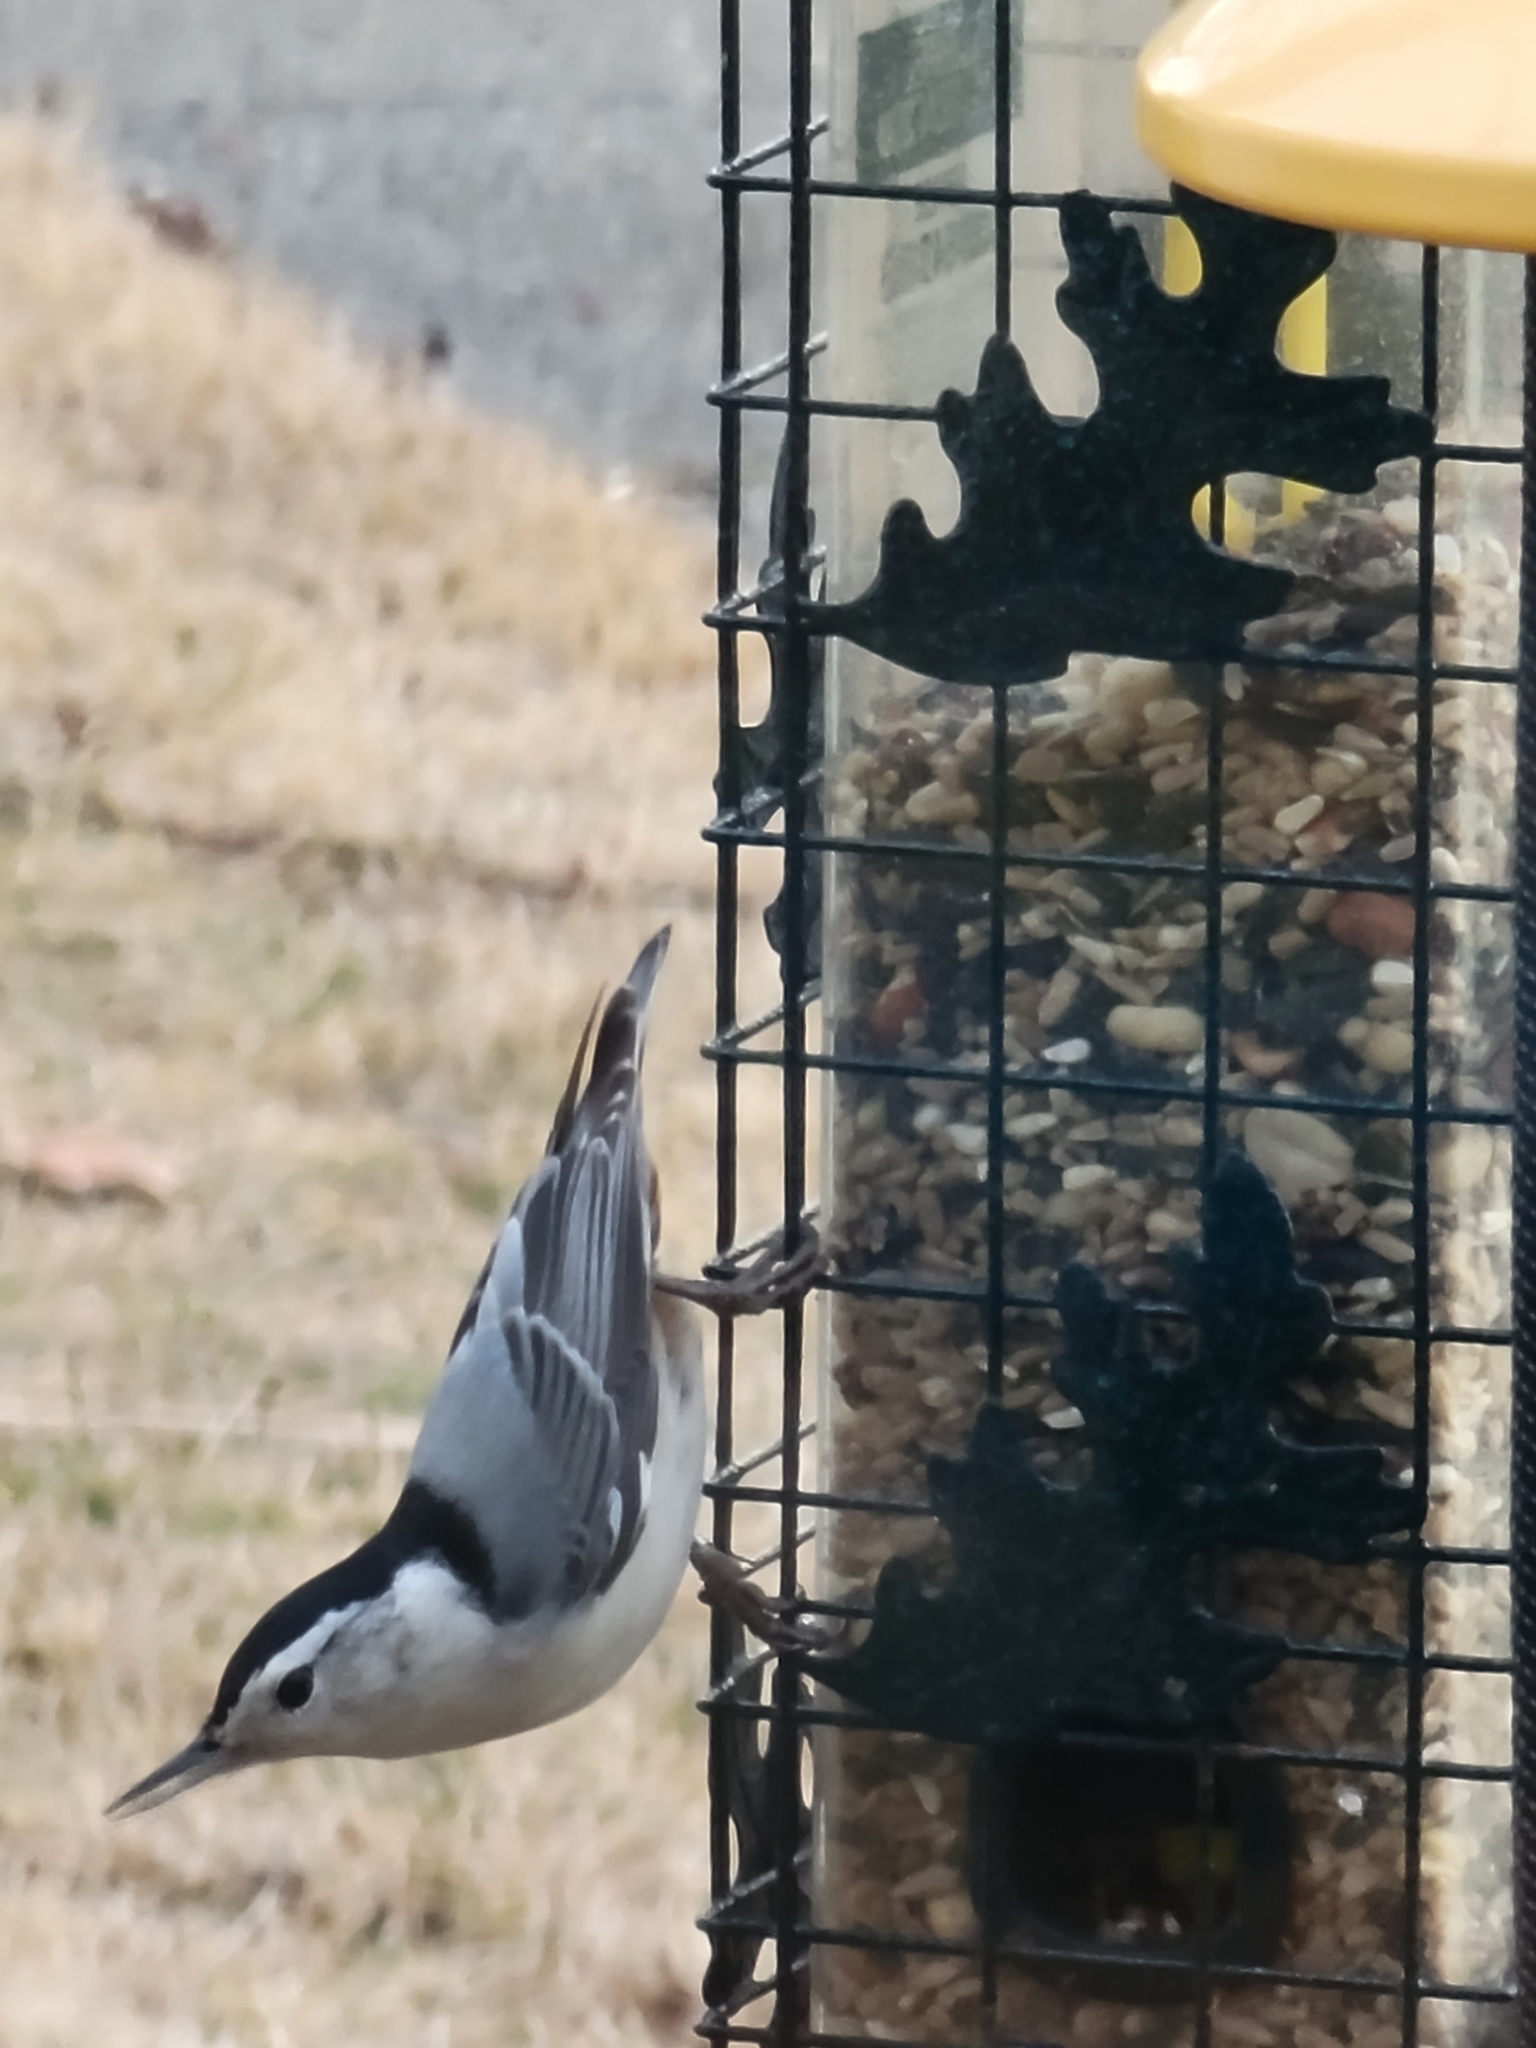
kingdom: Animalia
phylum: Chordata
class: Aves
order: Passeriformes
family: Sittidae
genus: Sitta
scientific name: Sitta carolinensis
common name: White-breasted nuthatch
